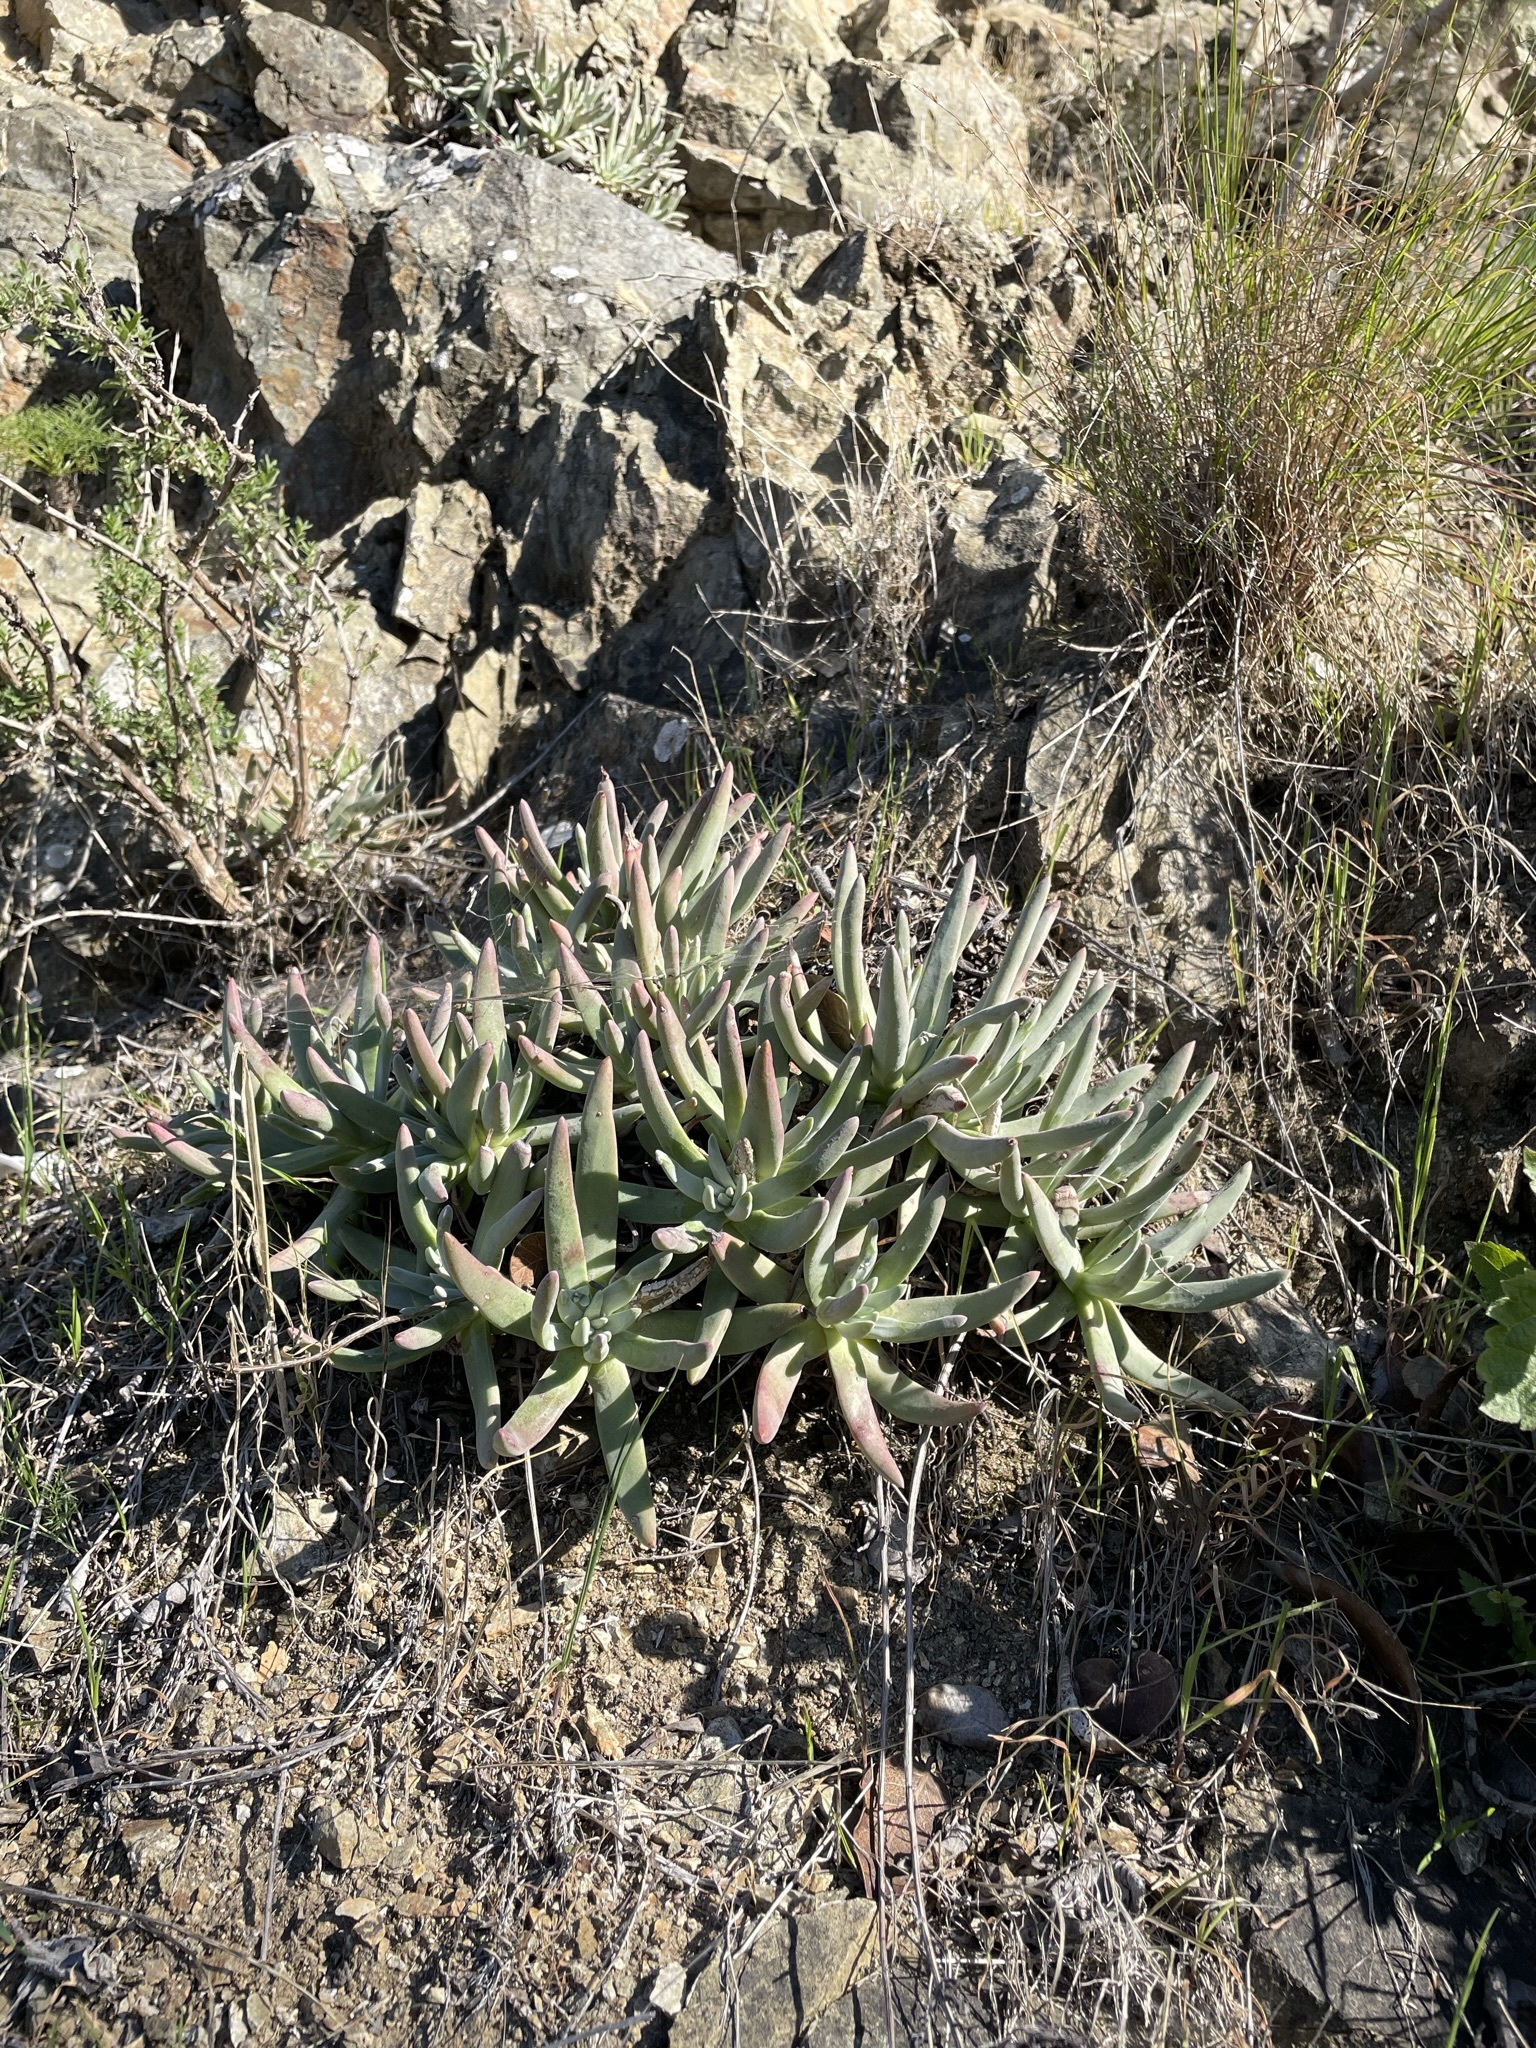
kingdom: Plantae
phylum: Tracheophyta
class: Magnoliopsida
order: Saxifragales
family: Crassulaceae
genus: Dudleya
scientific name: Dudleya virens
